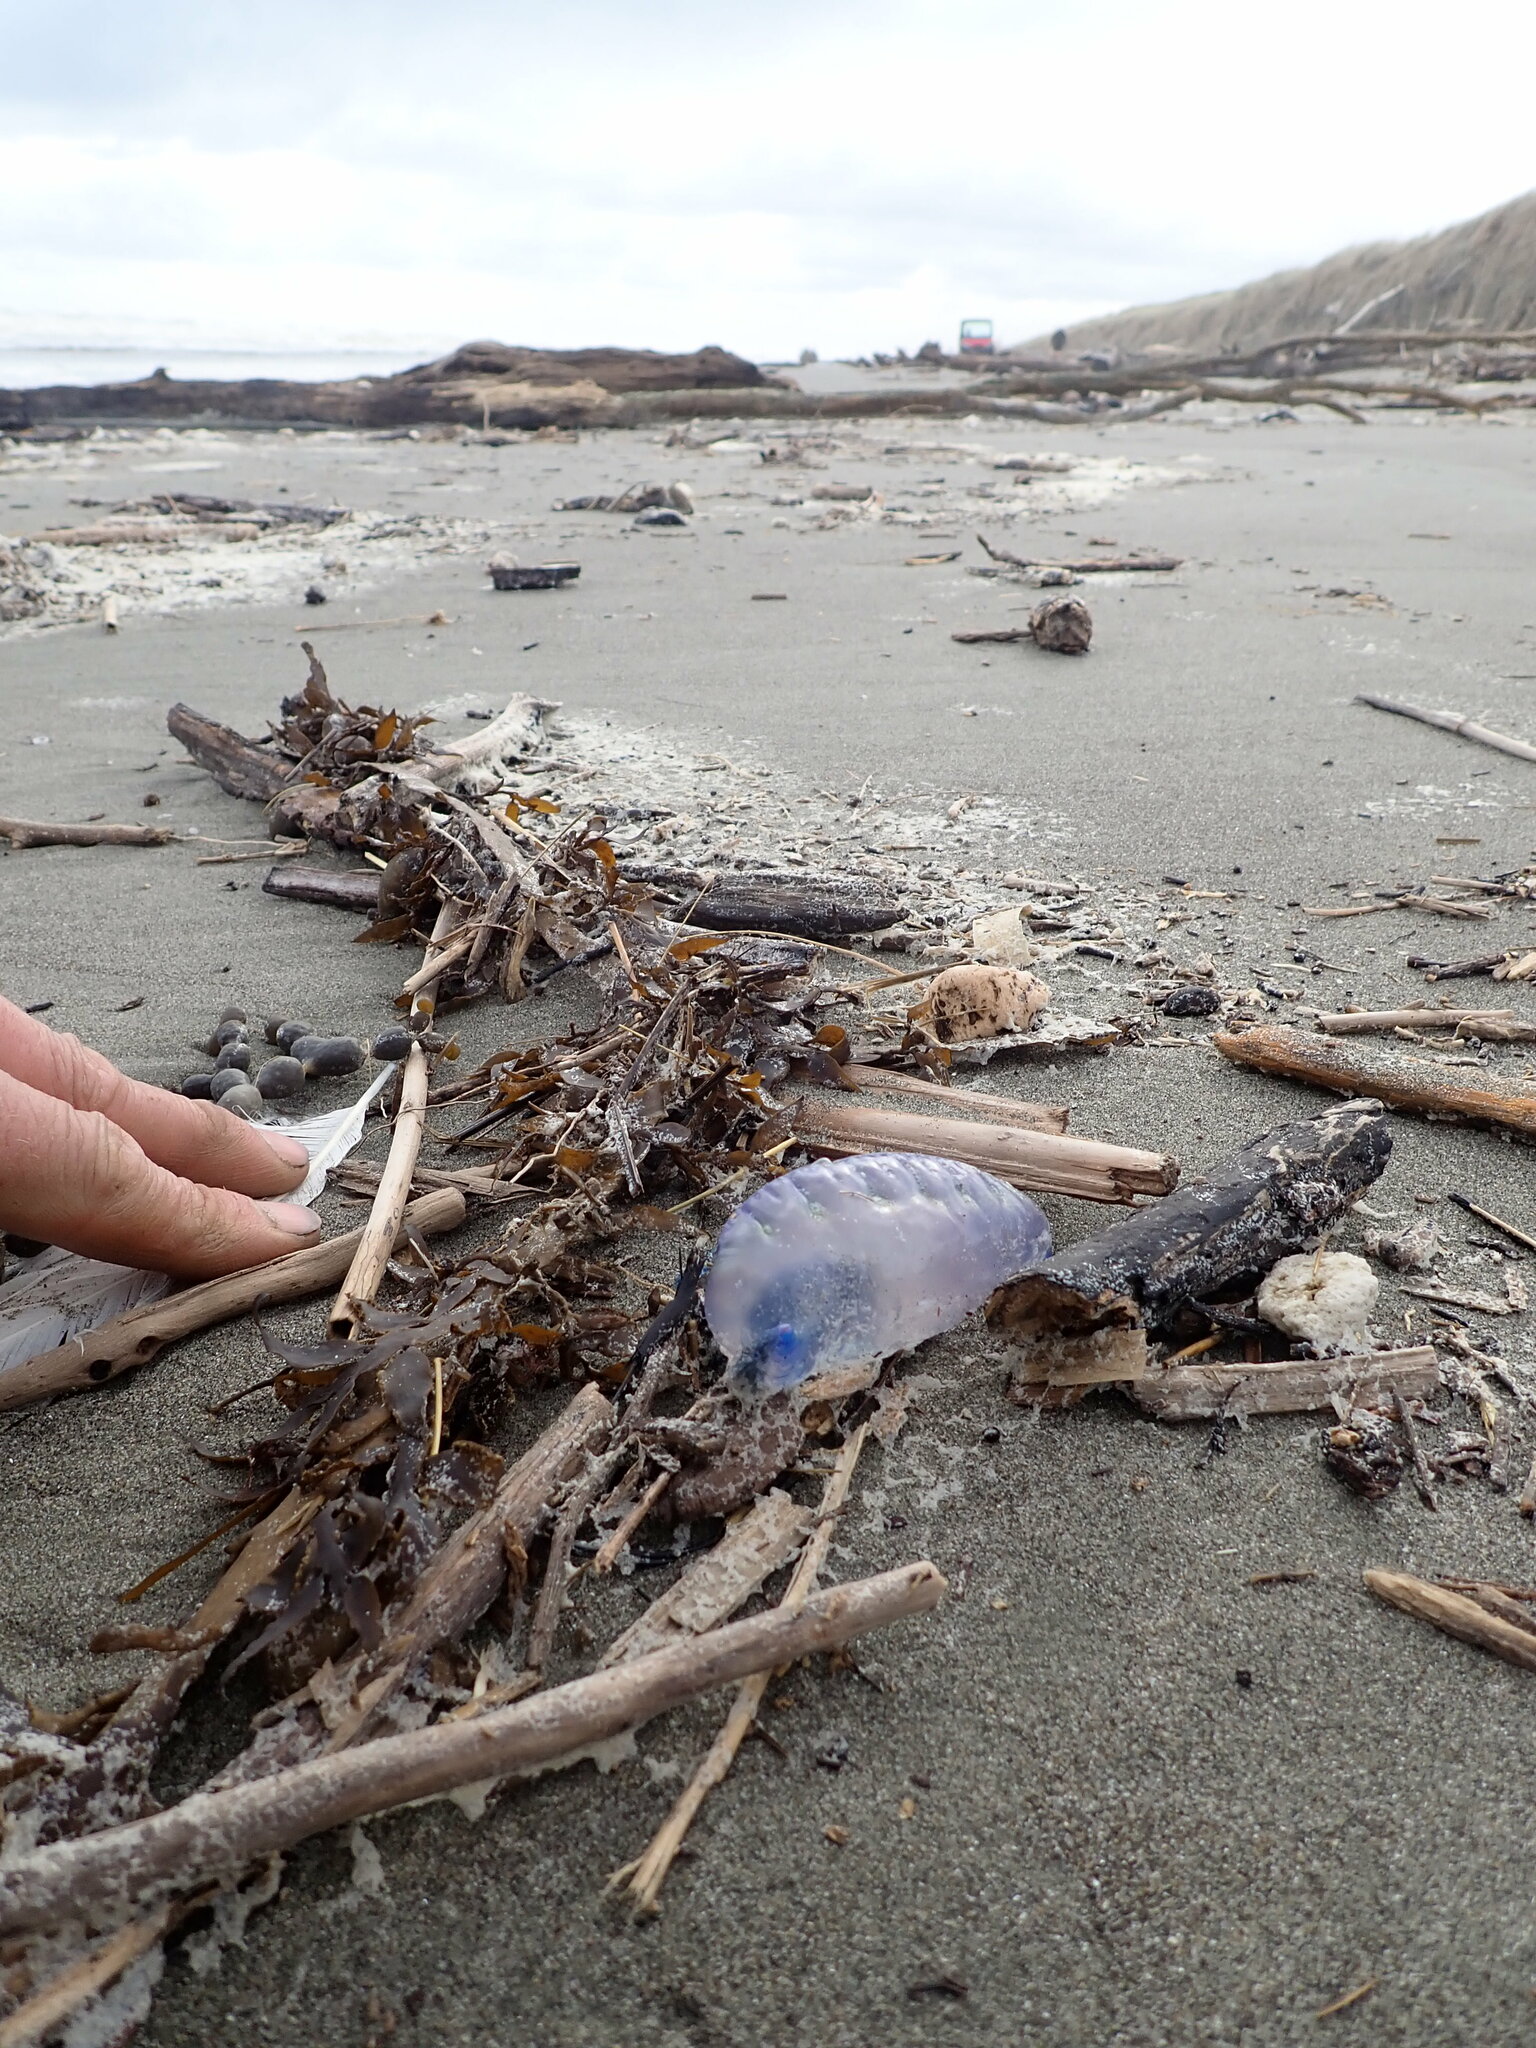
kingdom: Animalia
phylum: Cnidaria
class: Hydrozoa
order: Siphonophorae
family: Physaliidae
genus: Physalia
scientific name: Physalia physalis
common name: Portuguese man-of-war
